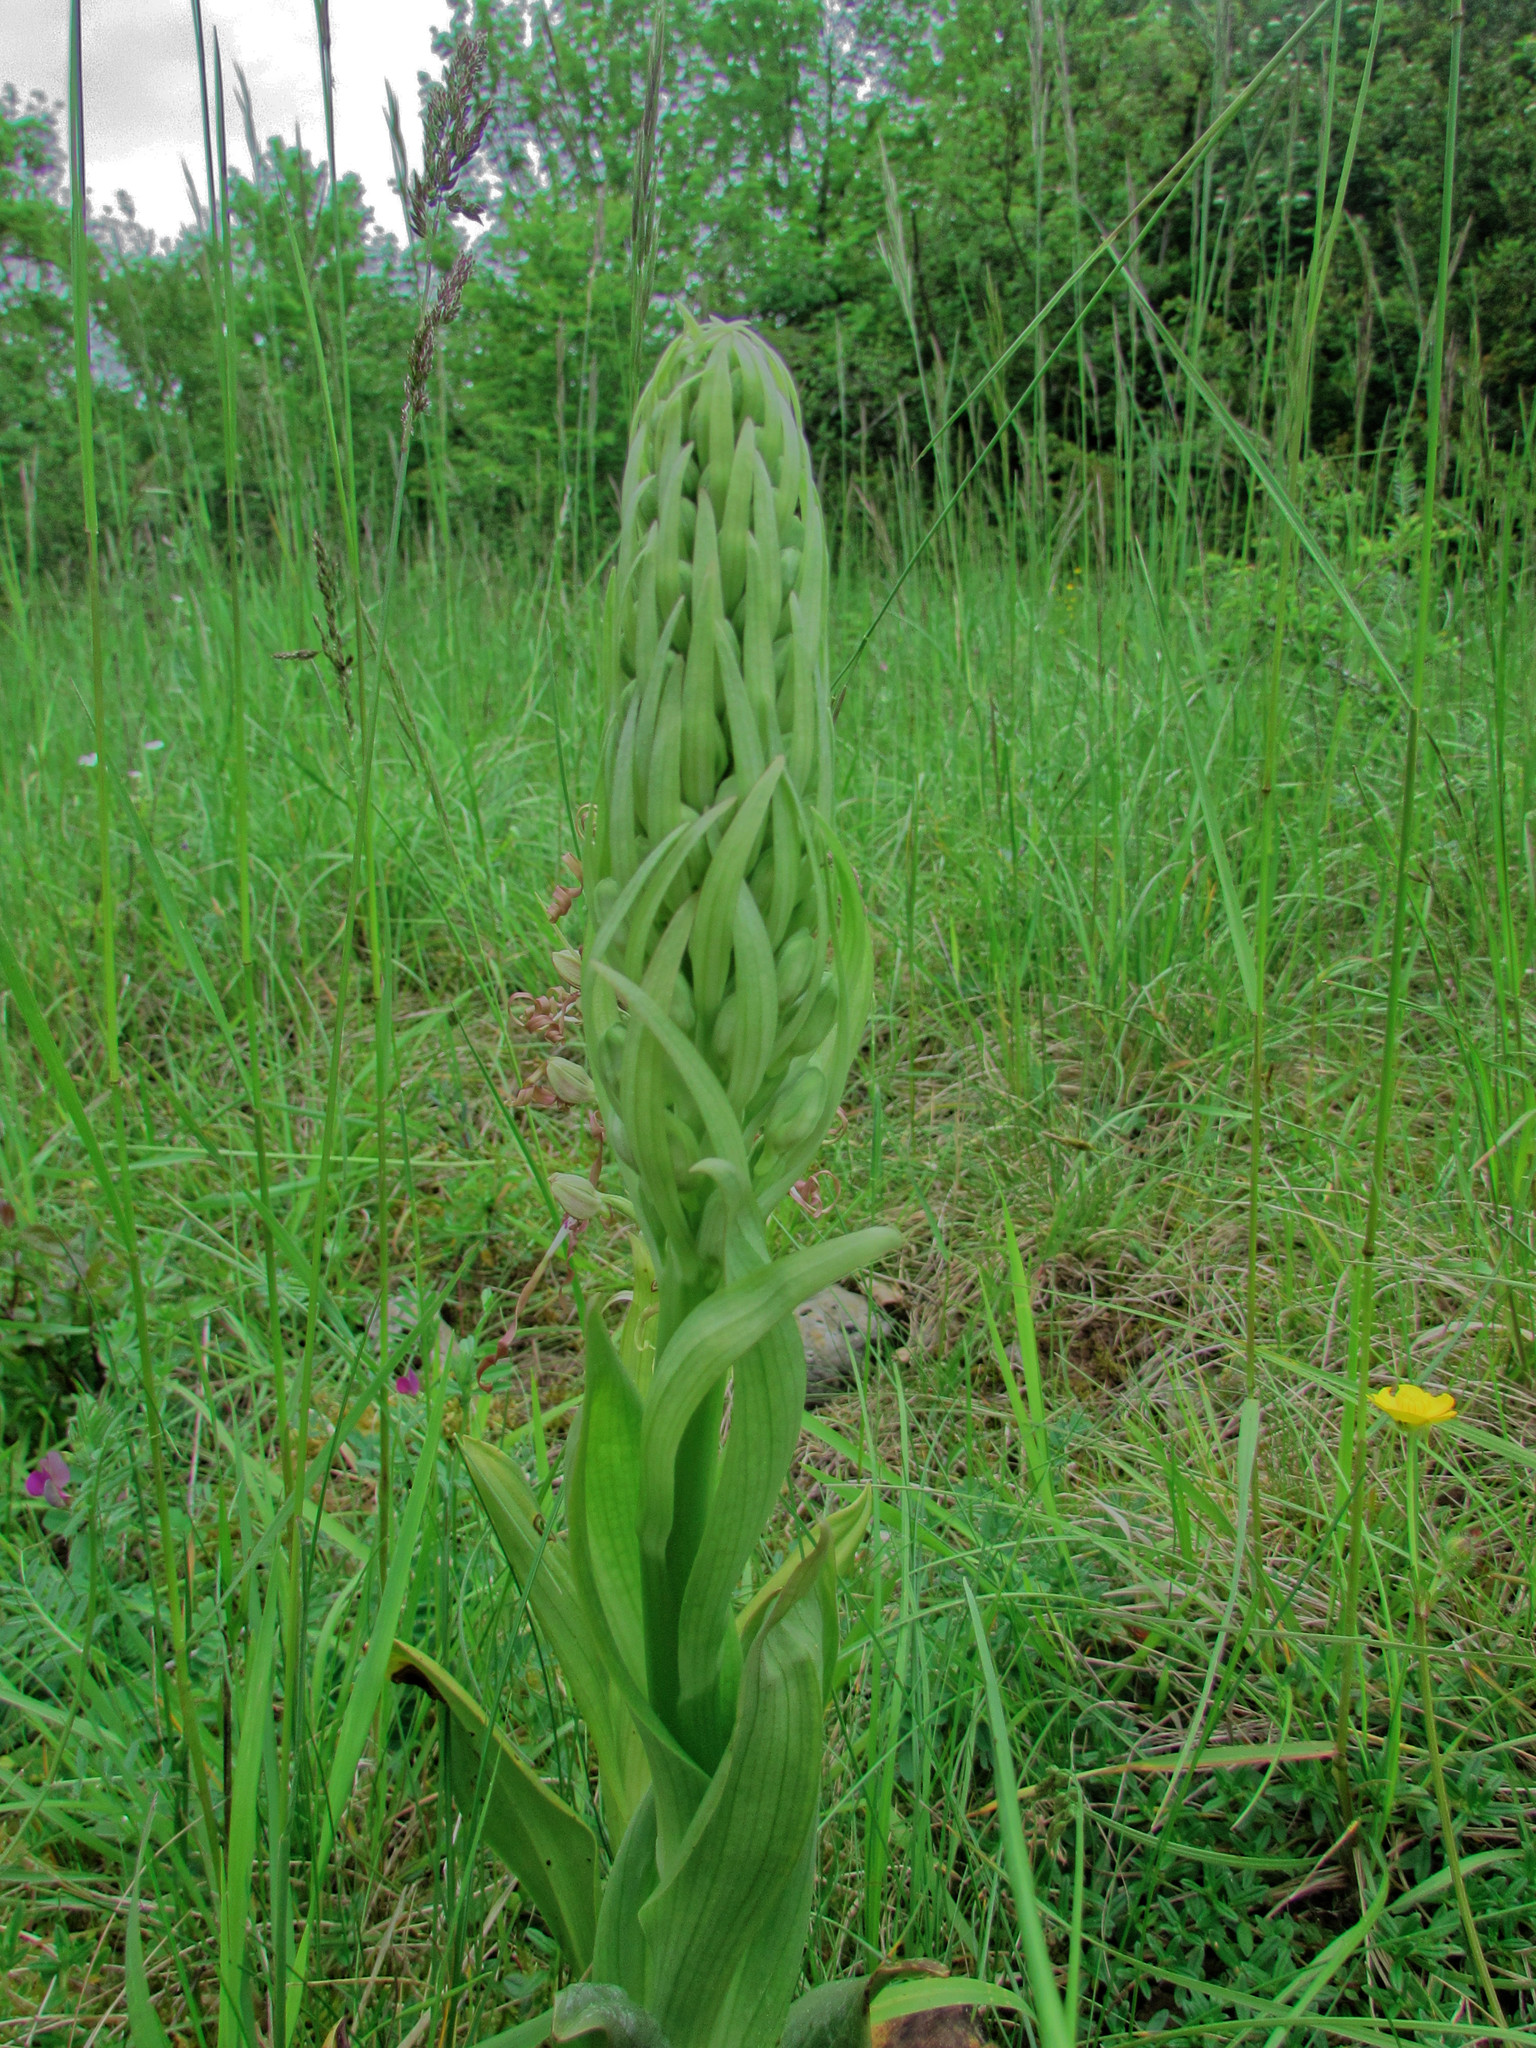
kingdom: Plantae
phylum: Tracheophyta
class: Liliopsida
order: Asparagales
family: Orchidaceae
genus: Himantoglossum
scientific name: Himantoglossum hircinum
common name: Lizard orchid
